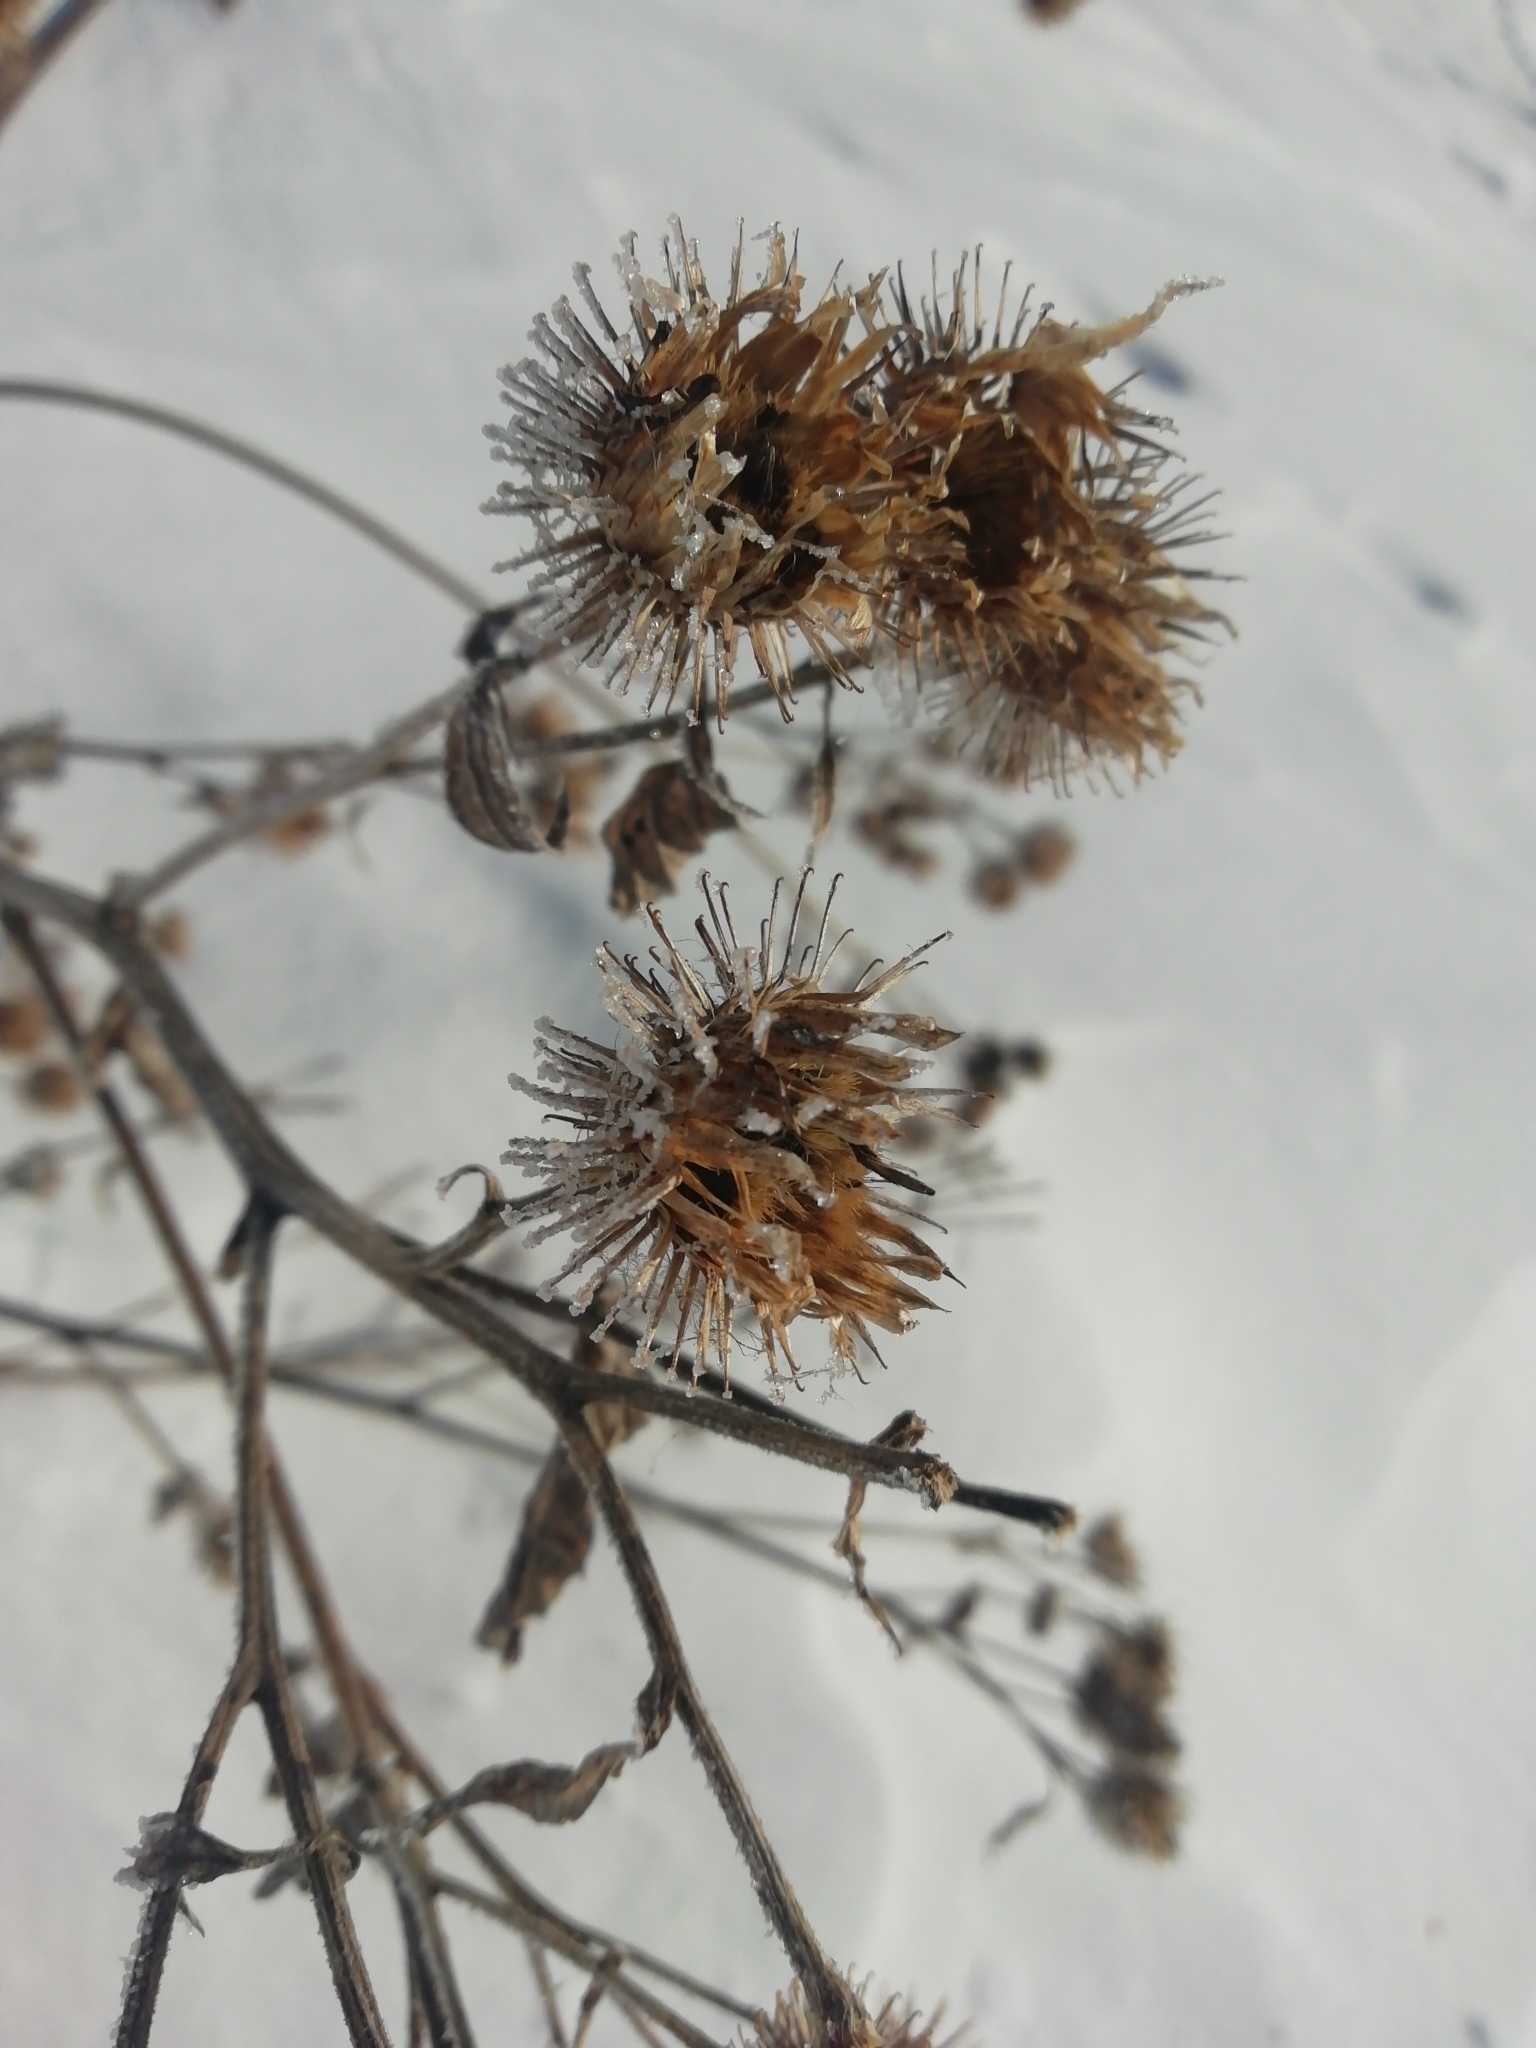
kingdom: Plantae
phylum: Tracheophyta
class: Magnoliopsida
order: Asterales
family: Asteraceae
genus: Arctium
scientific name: Arctium tomentosum
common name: Woolly burdock
